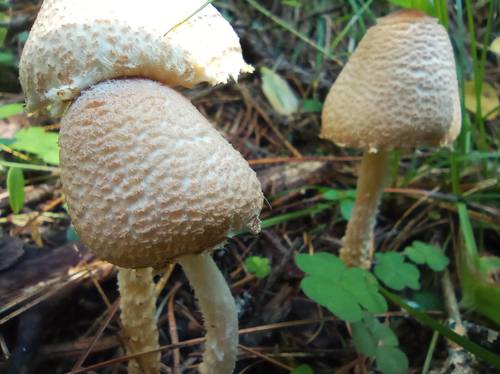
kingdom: Fungi
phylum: Basidiomycota
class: Agaricomycetes
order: Agaricales
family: Agaricaceae
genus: Lepiota
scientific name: Lepiota
